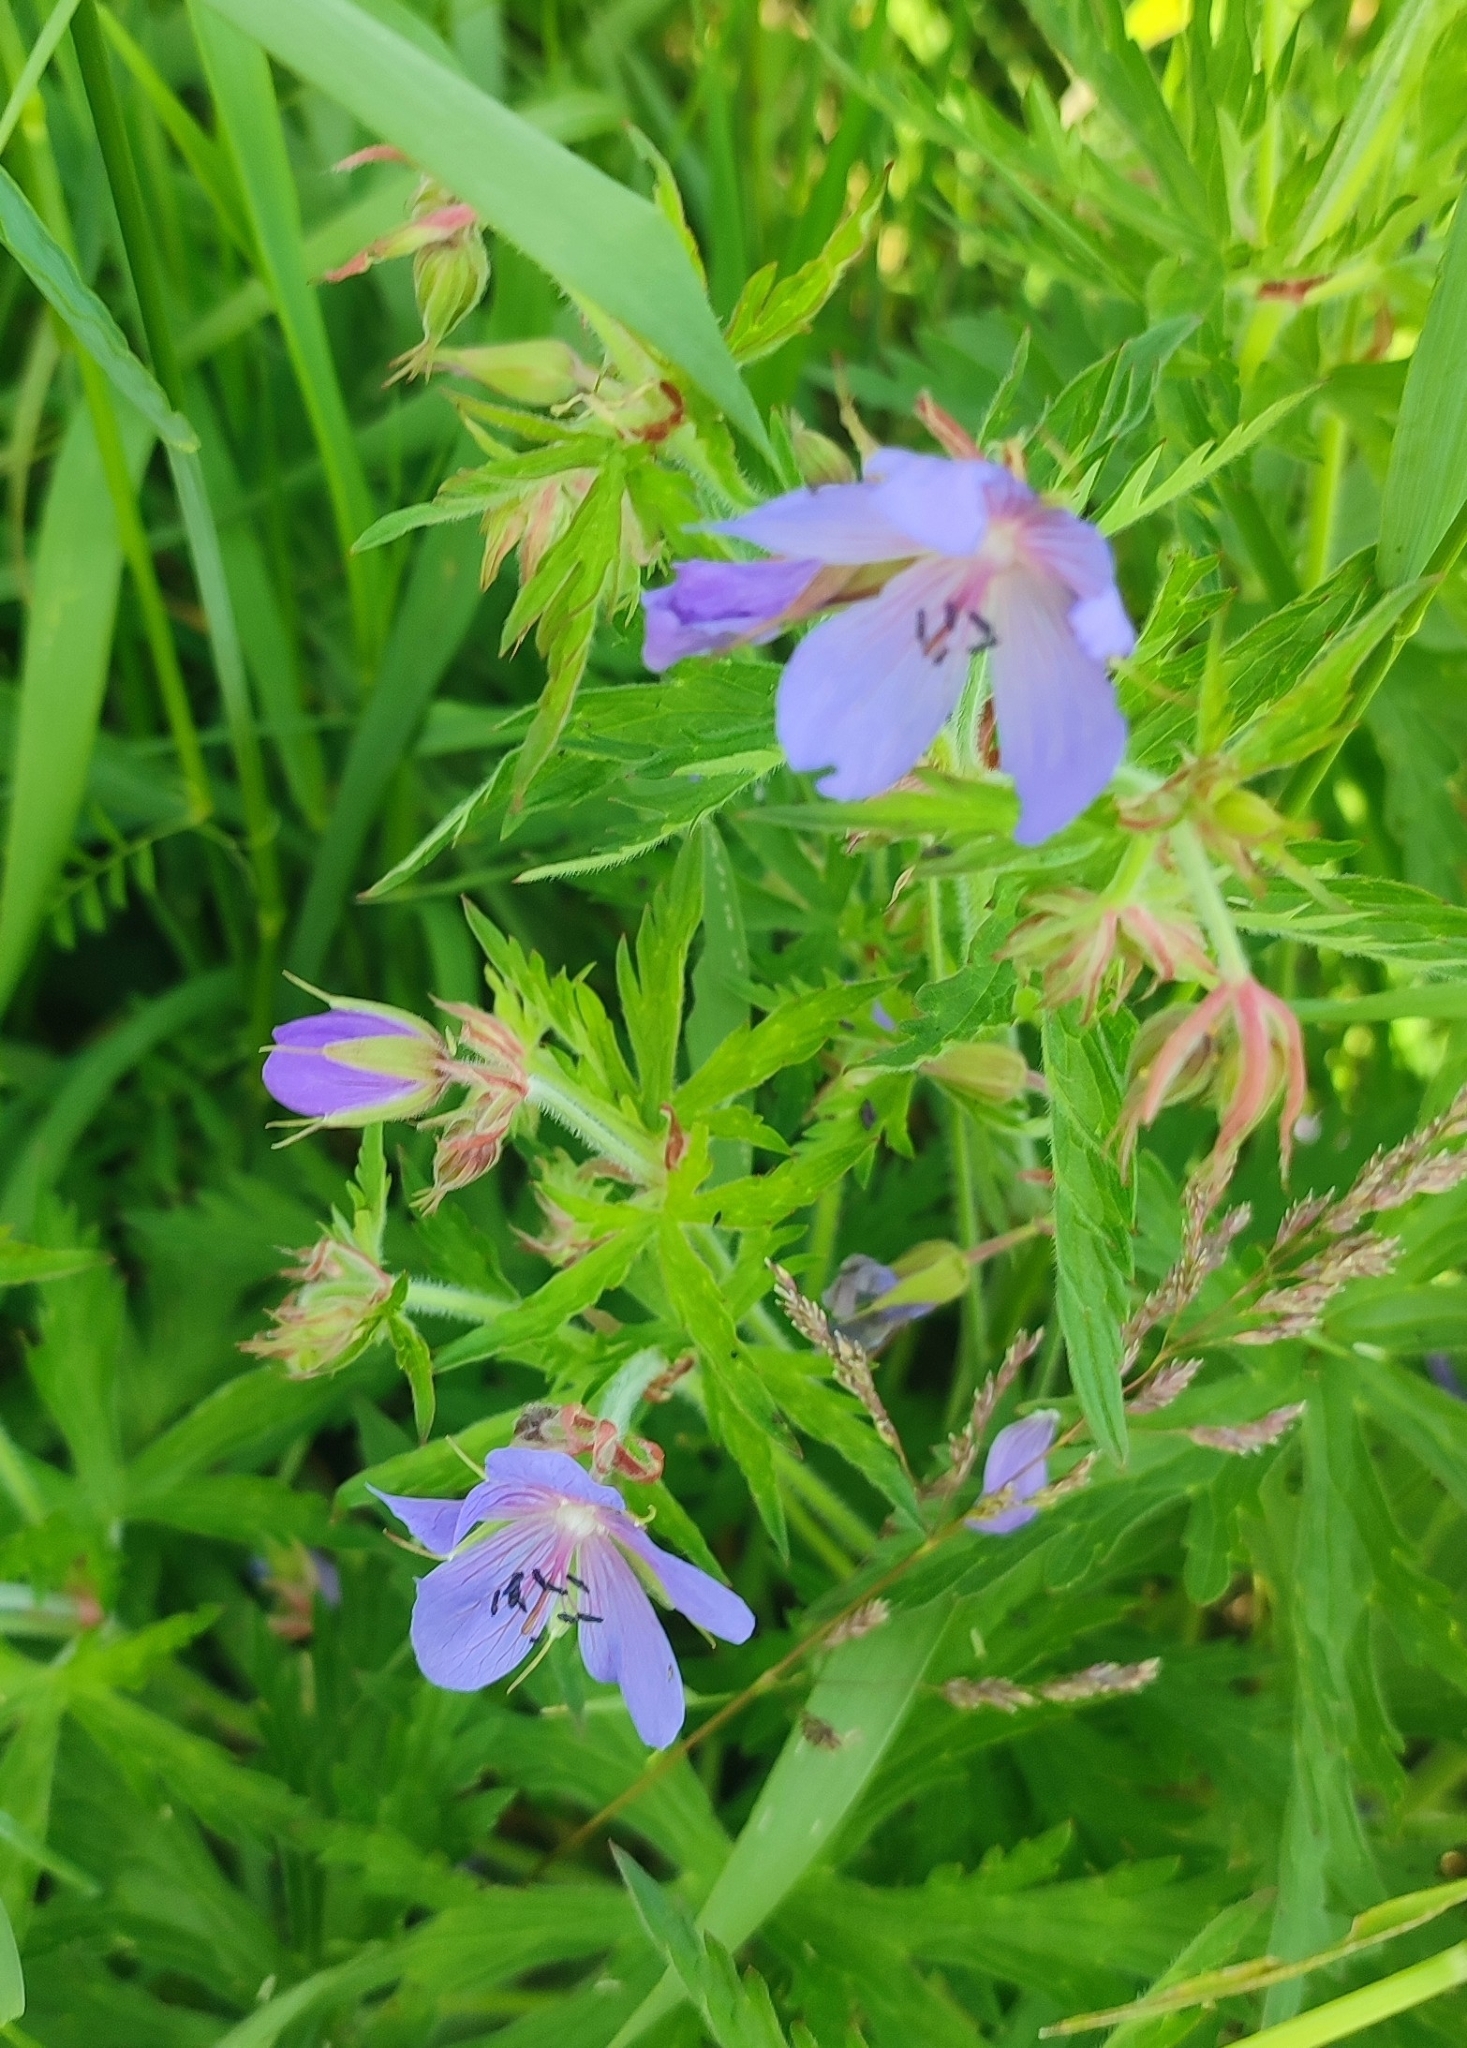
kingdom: Plantae
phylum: Tracheophyta
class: Magnoliopsida
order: Geraniales
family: Geraniaceae
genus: Geranium
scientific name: Geranium pratense
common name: Meadow crane's-bill
